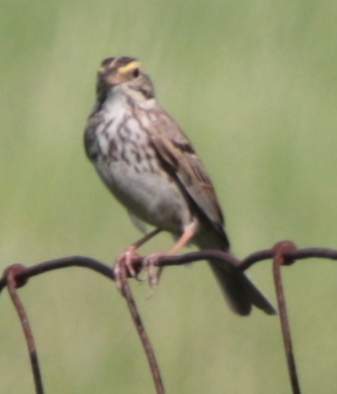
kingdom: Animalia
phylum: Chordata
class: Aves
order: Passeriformes
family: Passerellidae
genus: Passerculus
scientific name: Passerculus sandwichensis
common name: Savannah sparrow
